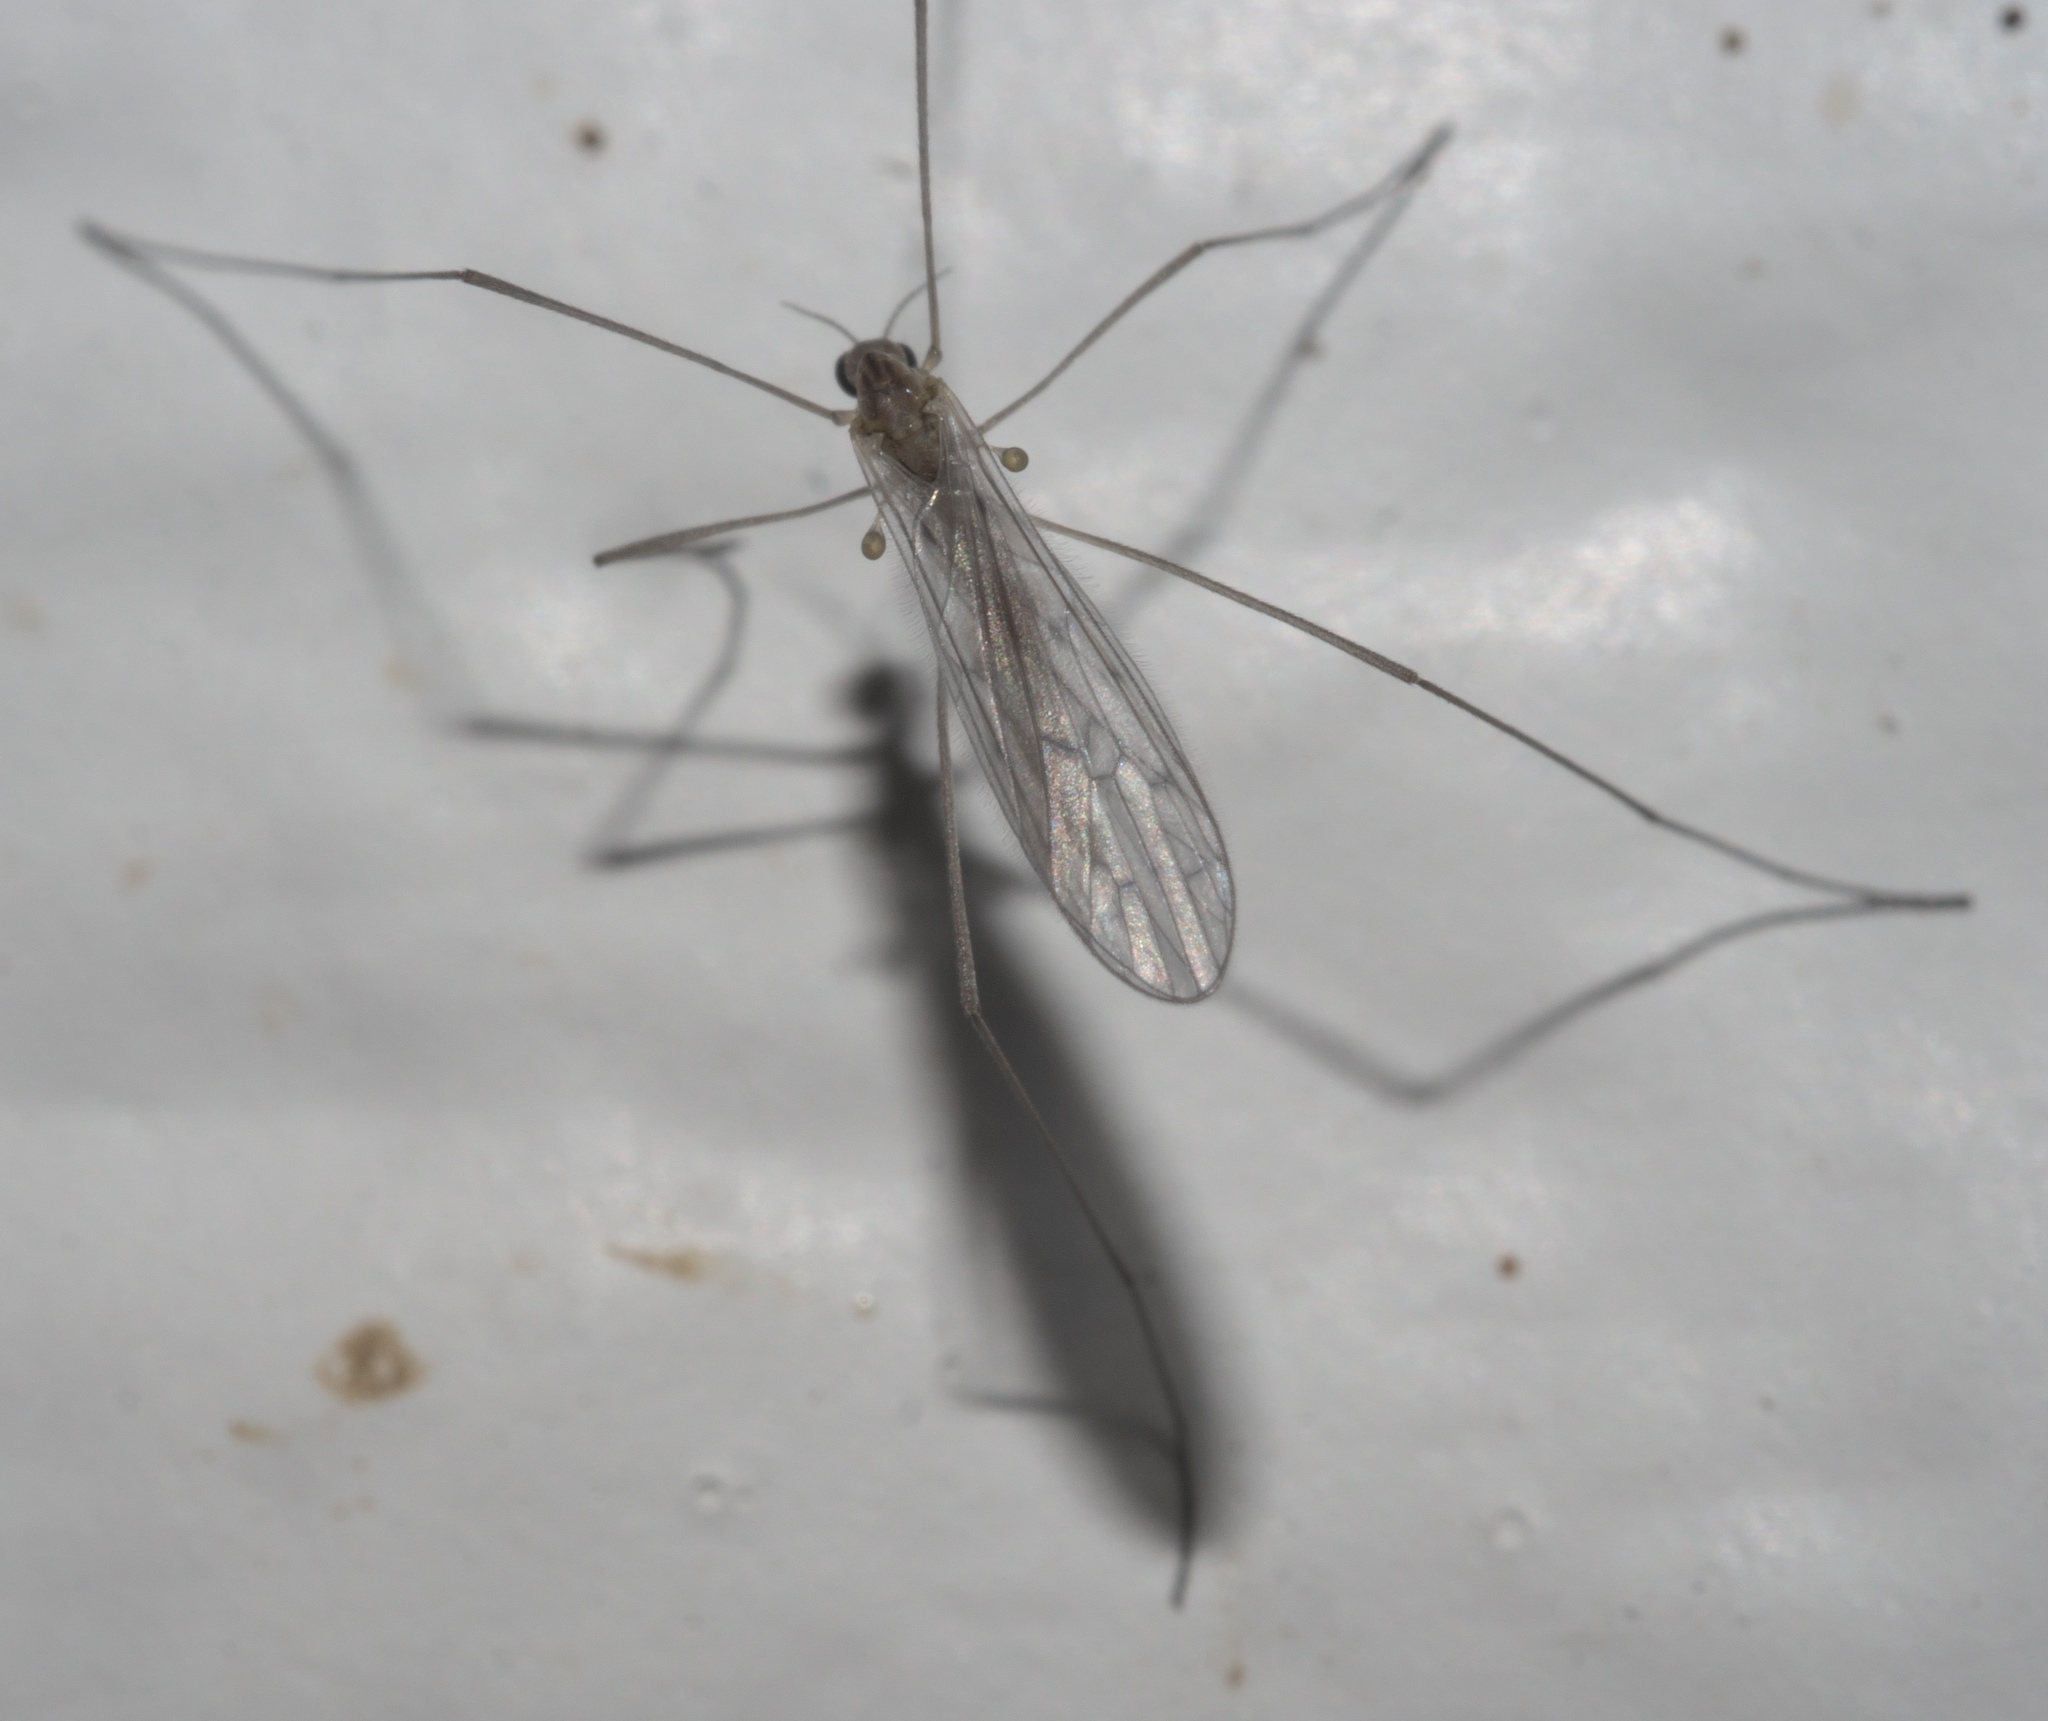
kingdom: Animalia
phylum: Arthropoda
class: Insecta
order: Diptera
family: Limoniidae
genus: Symplecta
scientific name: Symplecta cana
